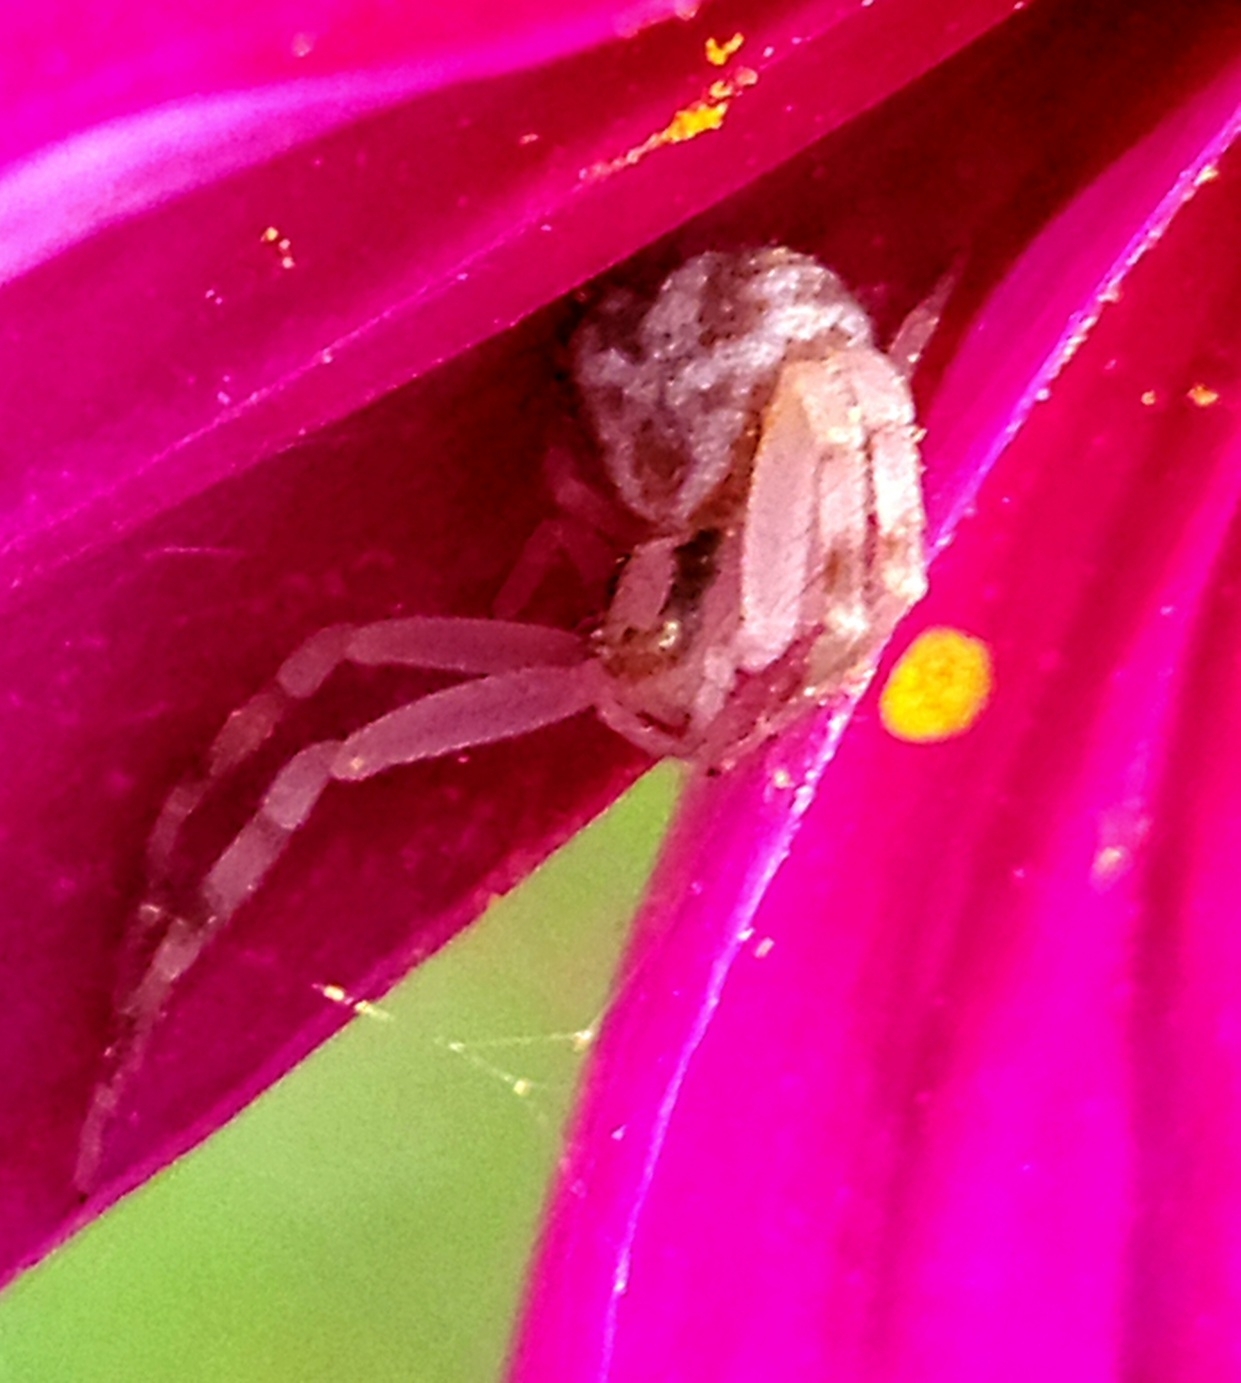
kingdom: Animalia
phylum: Arthropoda
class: Arachnida
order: Araneae
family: Thomisidae
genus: Mecaphesa
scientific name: Mecaphesa asperata
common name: Crab spiders
